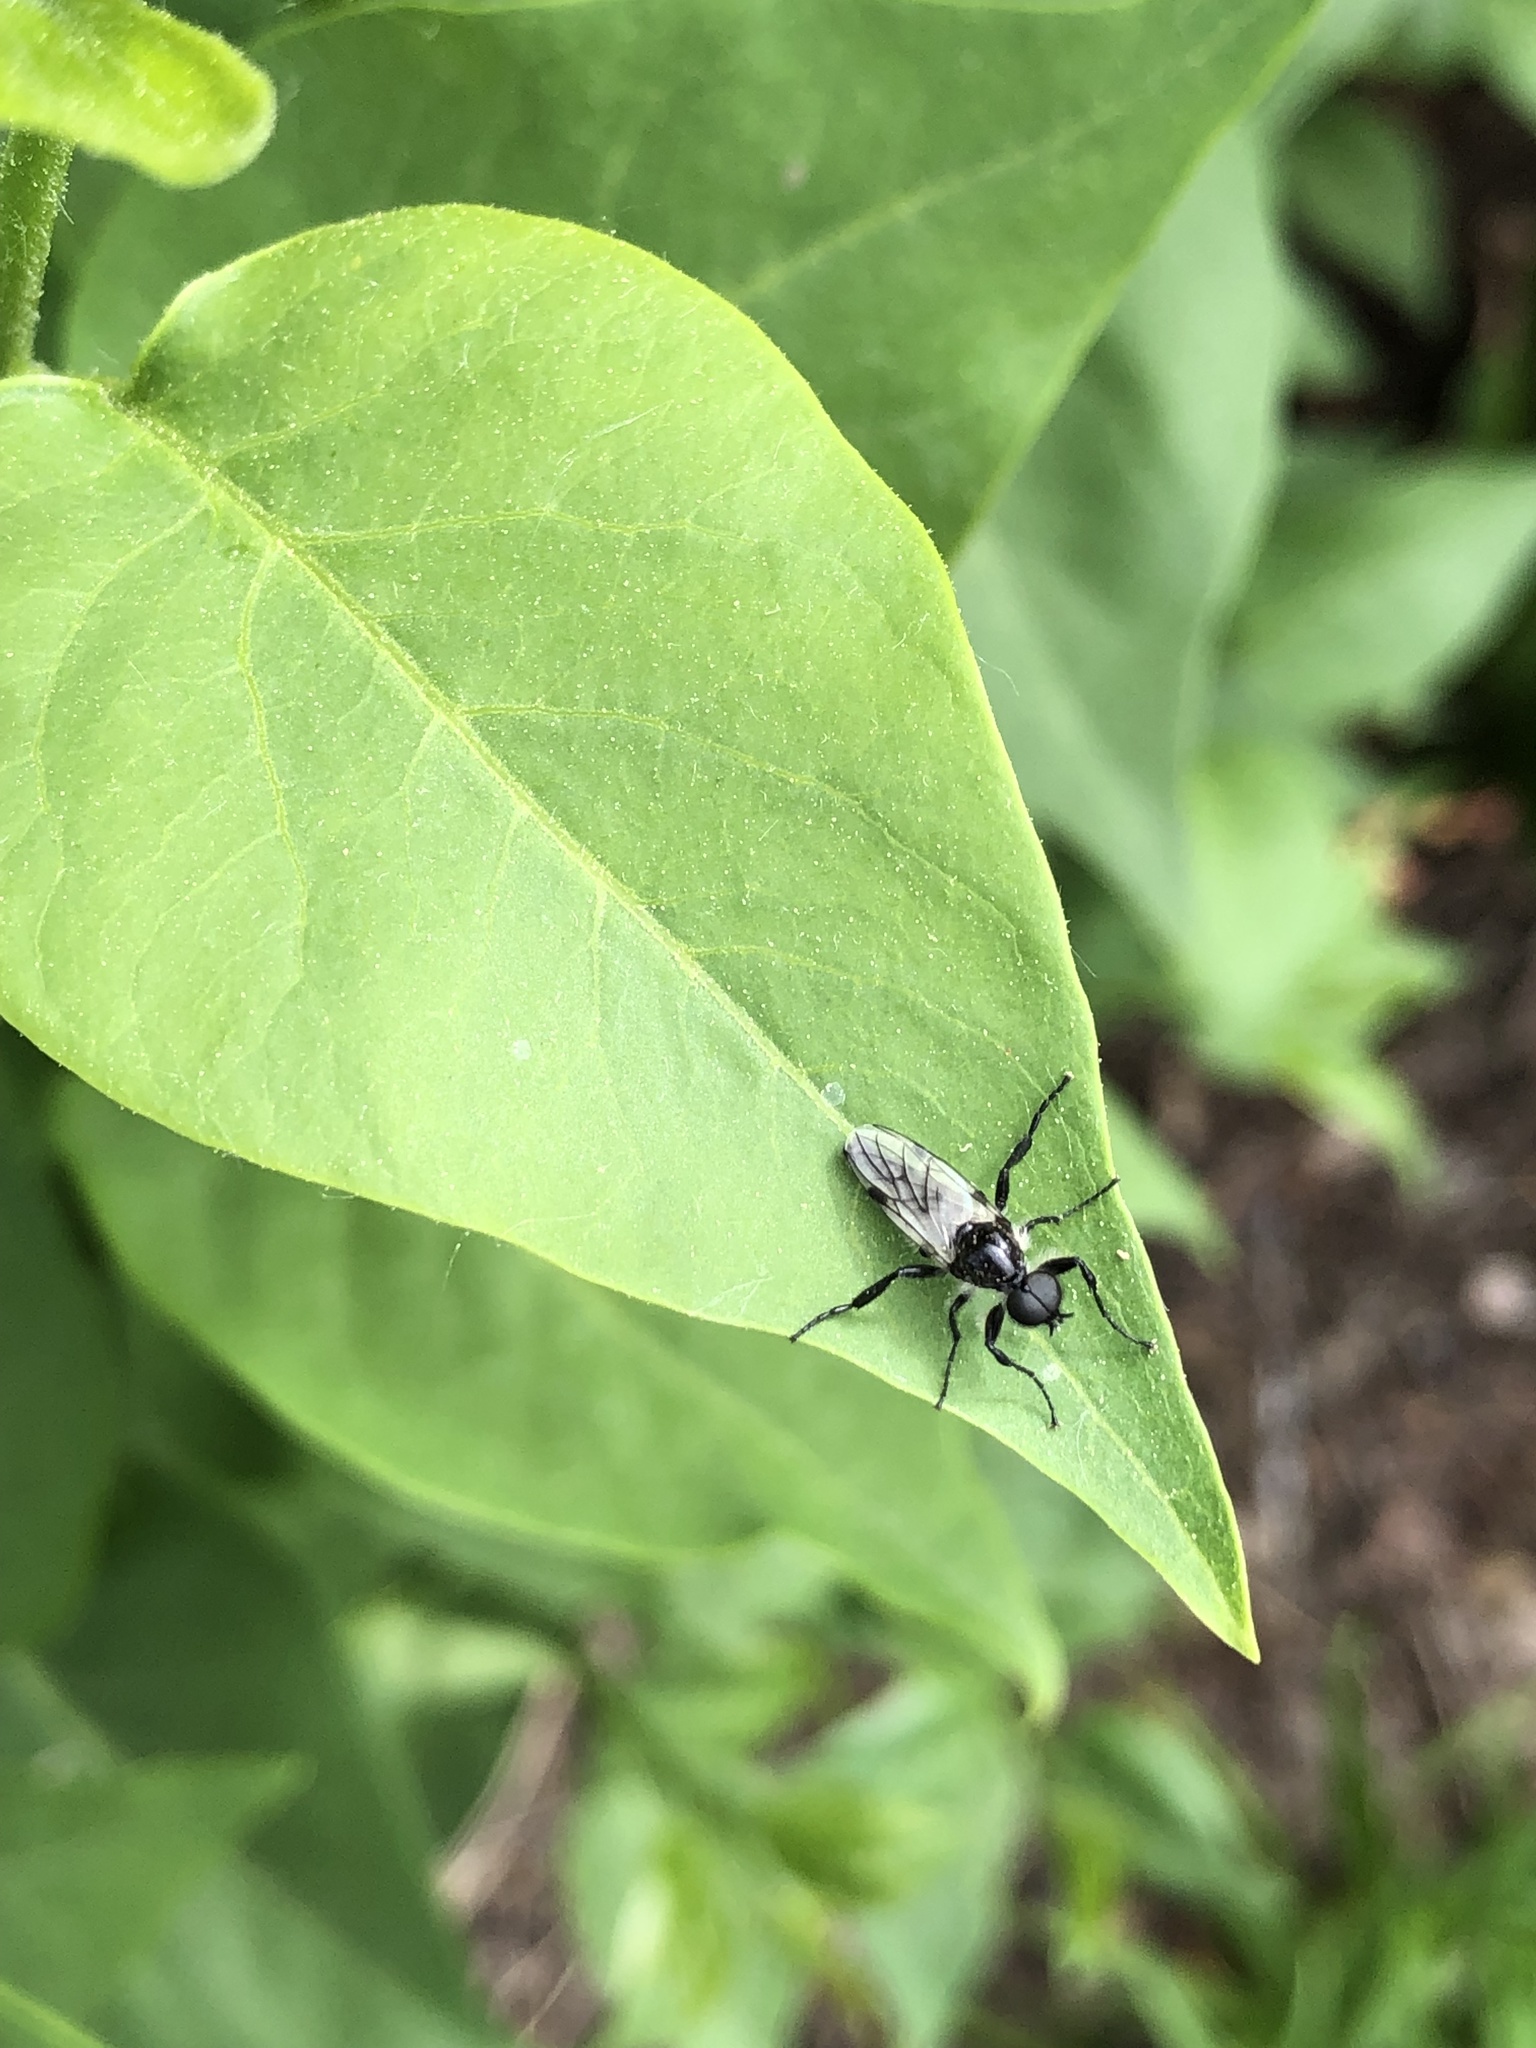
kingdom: Animalia
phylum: Arthropoda
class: Insecta
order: Diptera
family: Bibionidae
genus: Bibio
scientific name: Bibio albipennis
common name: White-winged march fly
